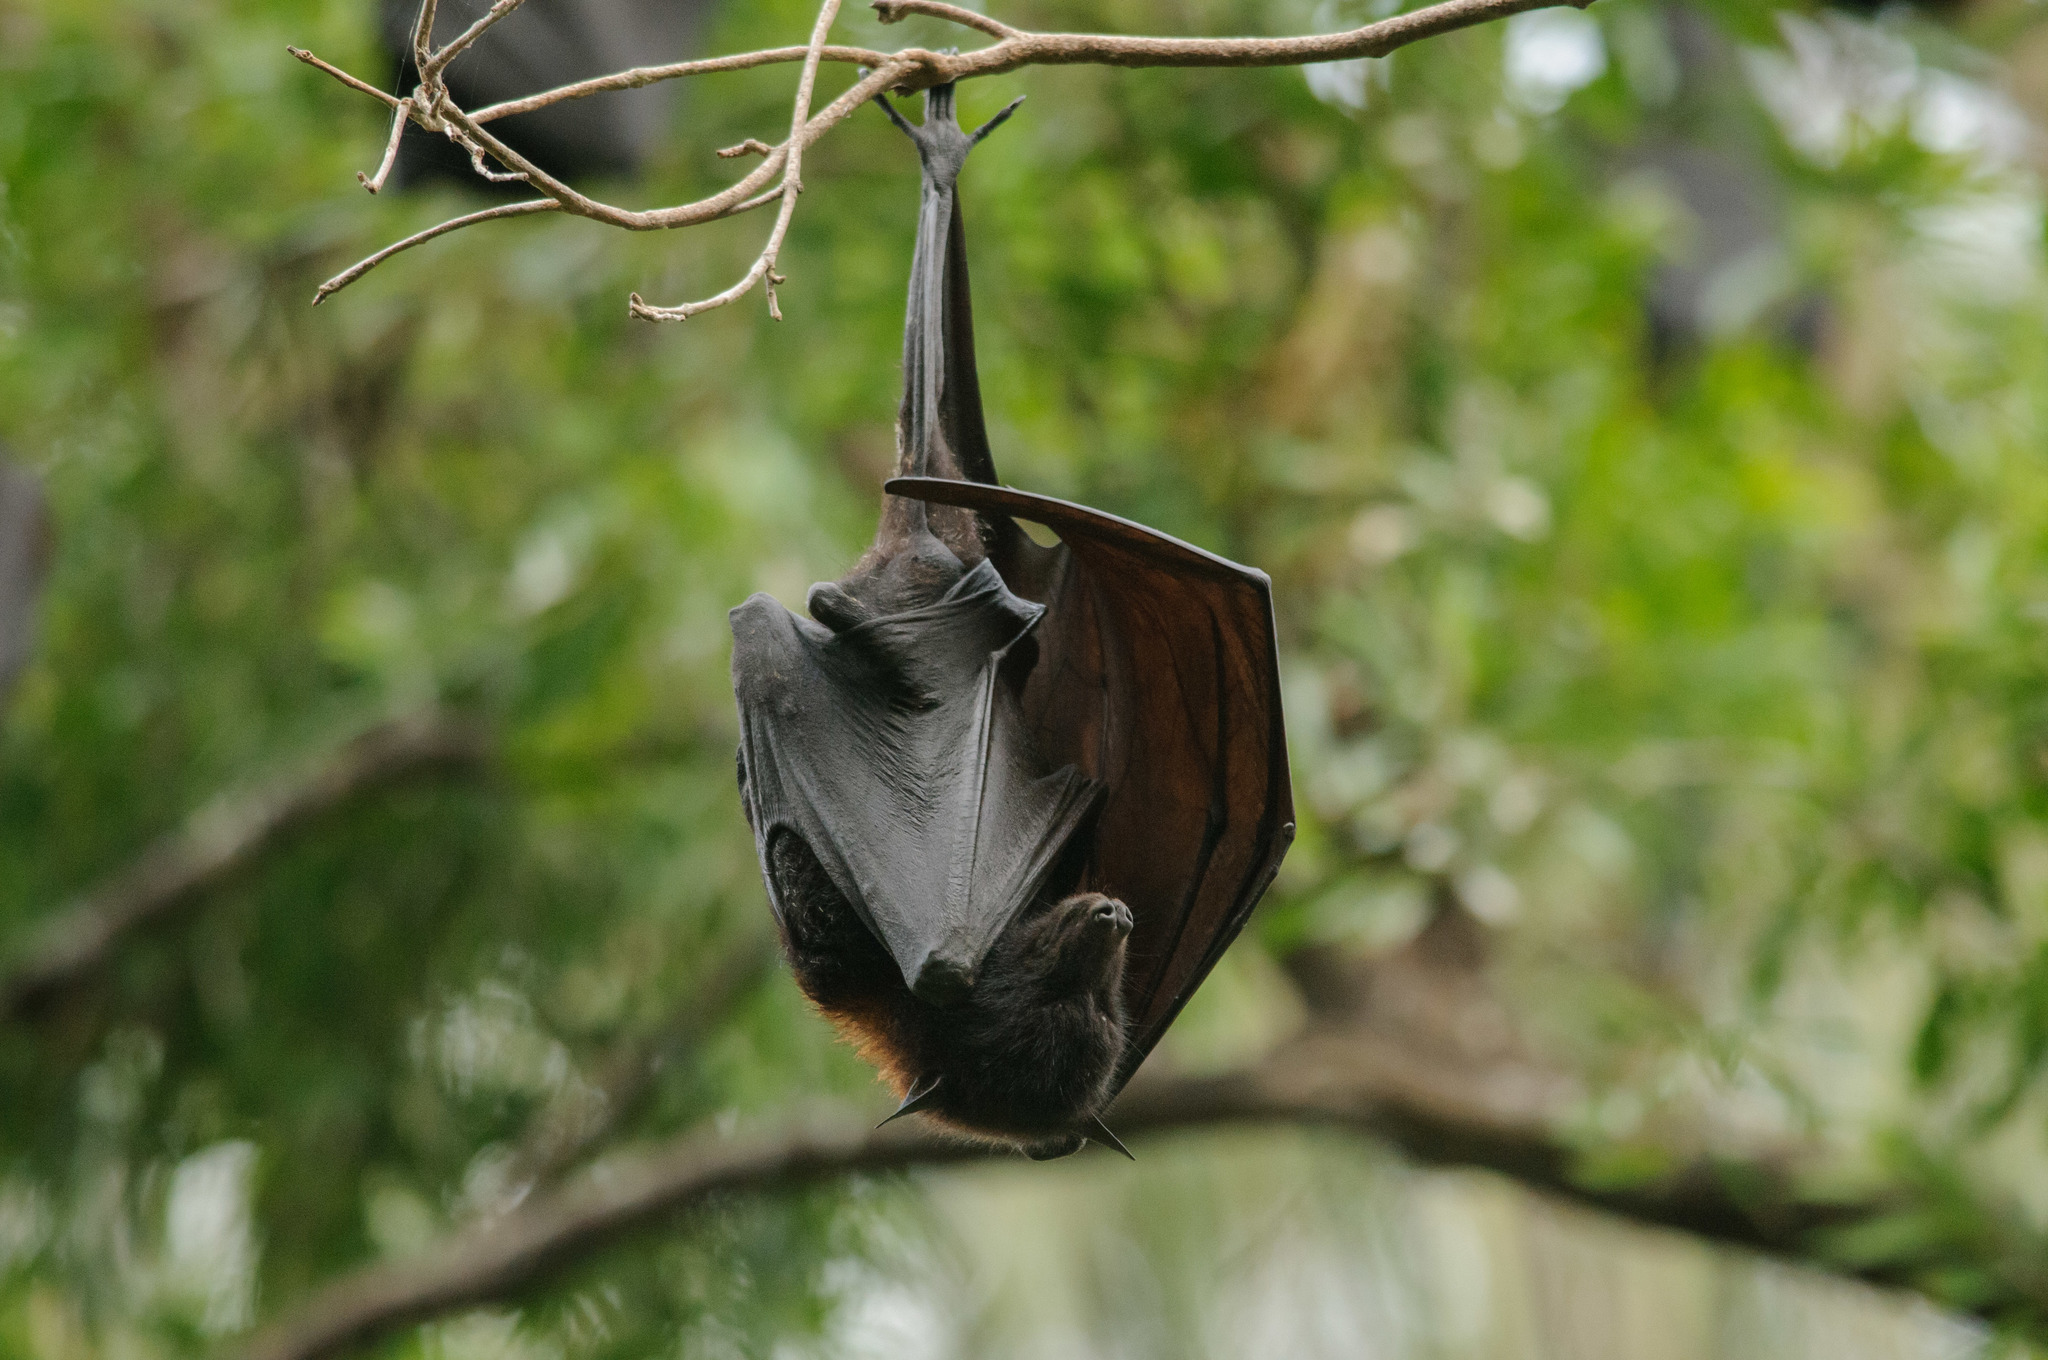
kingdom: Animalia
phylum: Chordata
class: Mammalia
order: Chiroptera
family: Pteropodidae
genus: Pteropus
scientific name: Pteropus alecto
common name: Black flying fox
